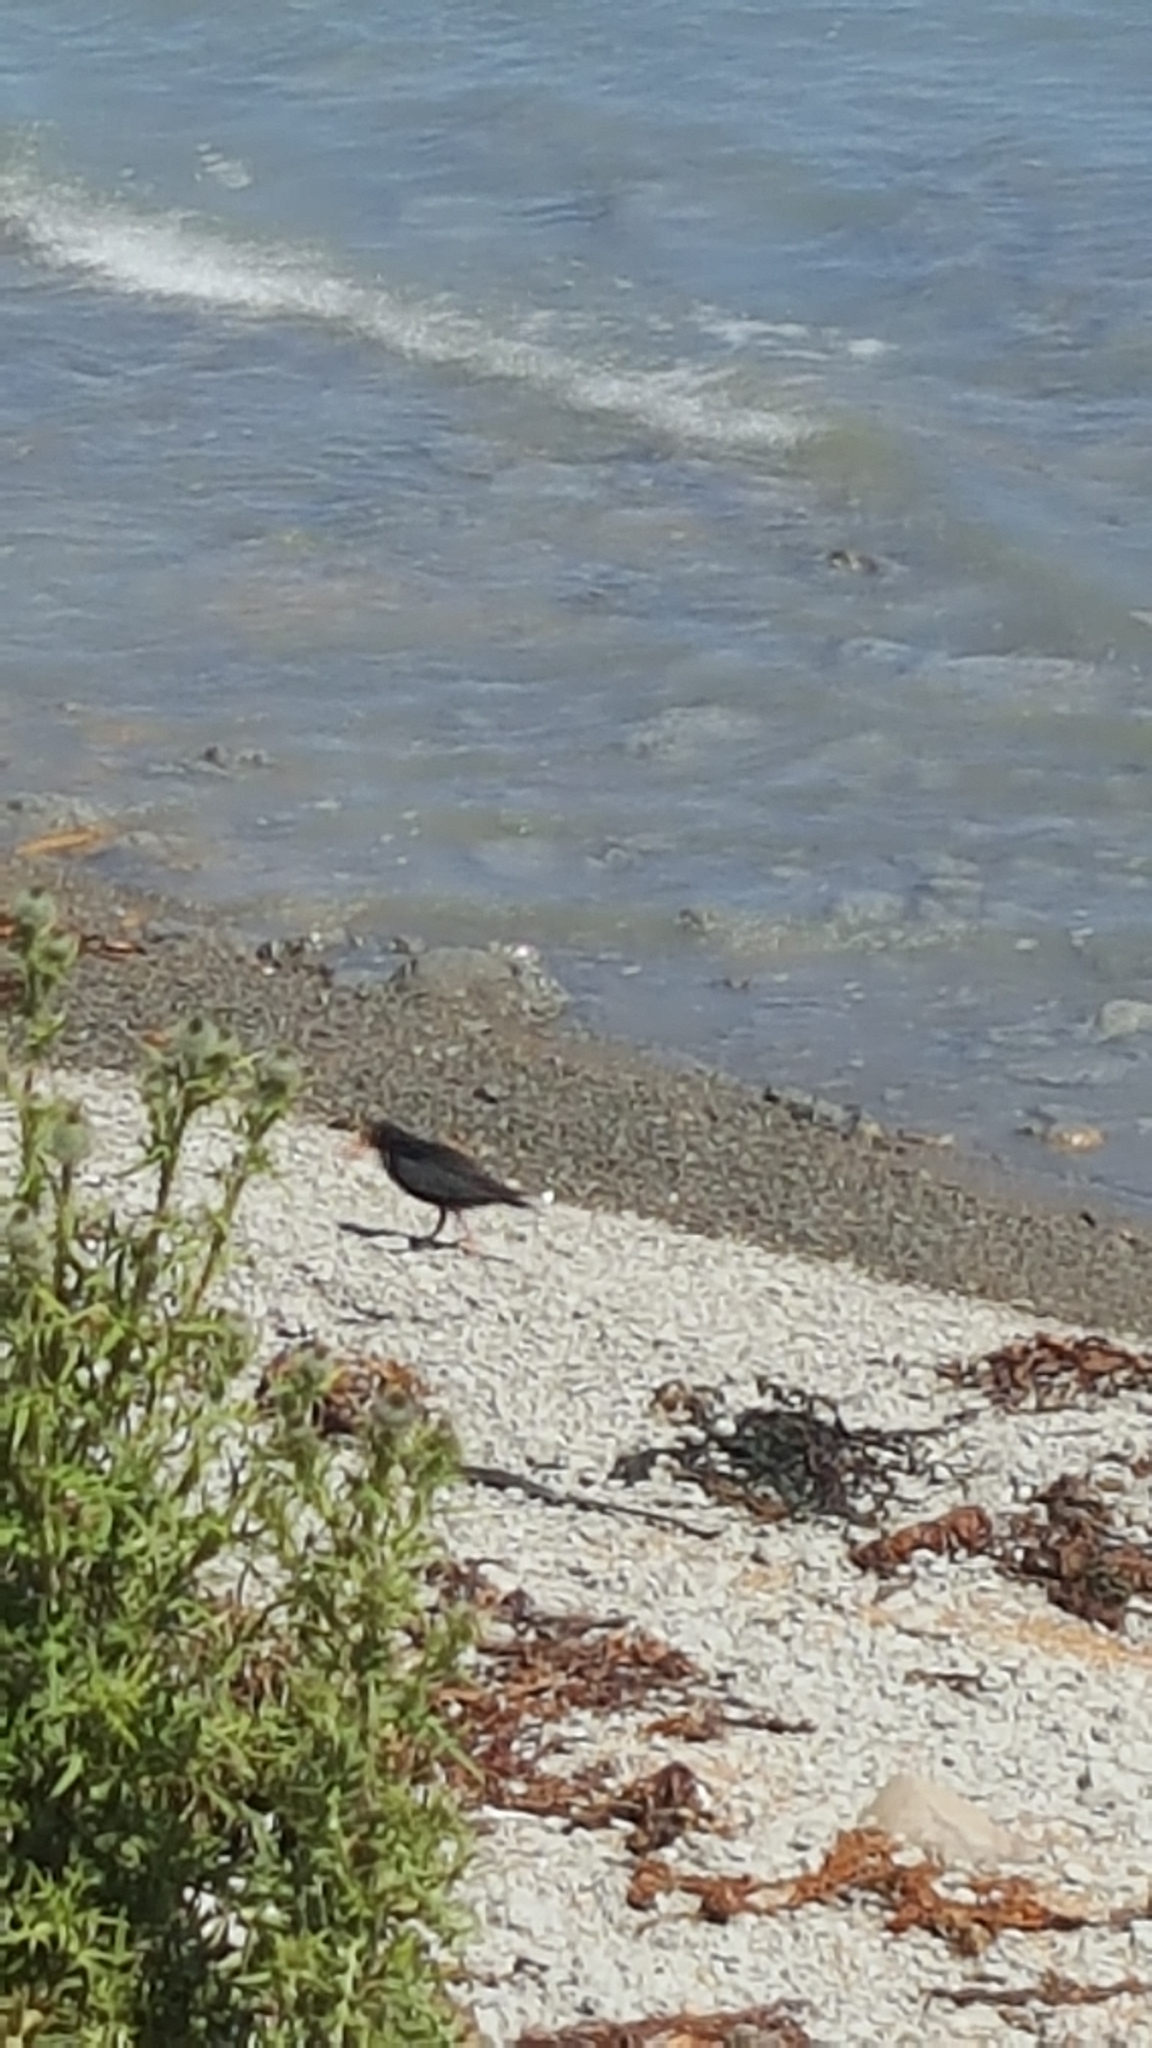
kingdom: Animalia
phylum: Chordata
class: Aves
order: Charadriiformes
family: Haematopodidae
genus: Haematopus
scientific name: Haematopus unicolor
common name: Variable oystercatcher
